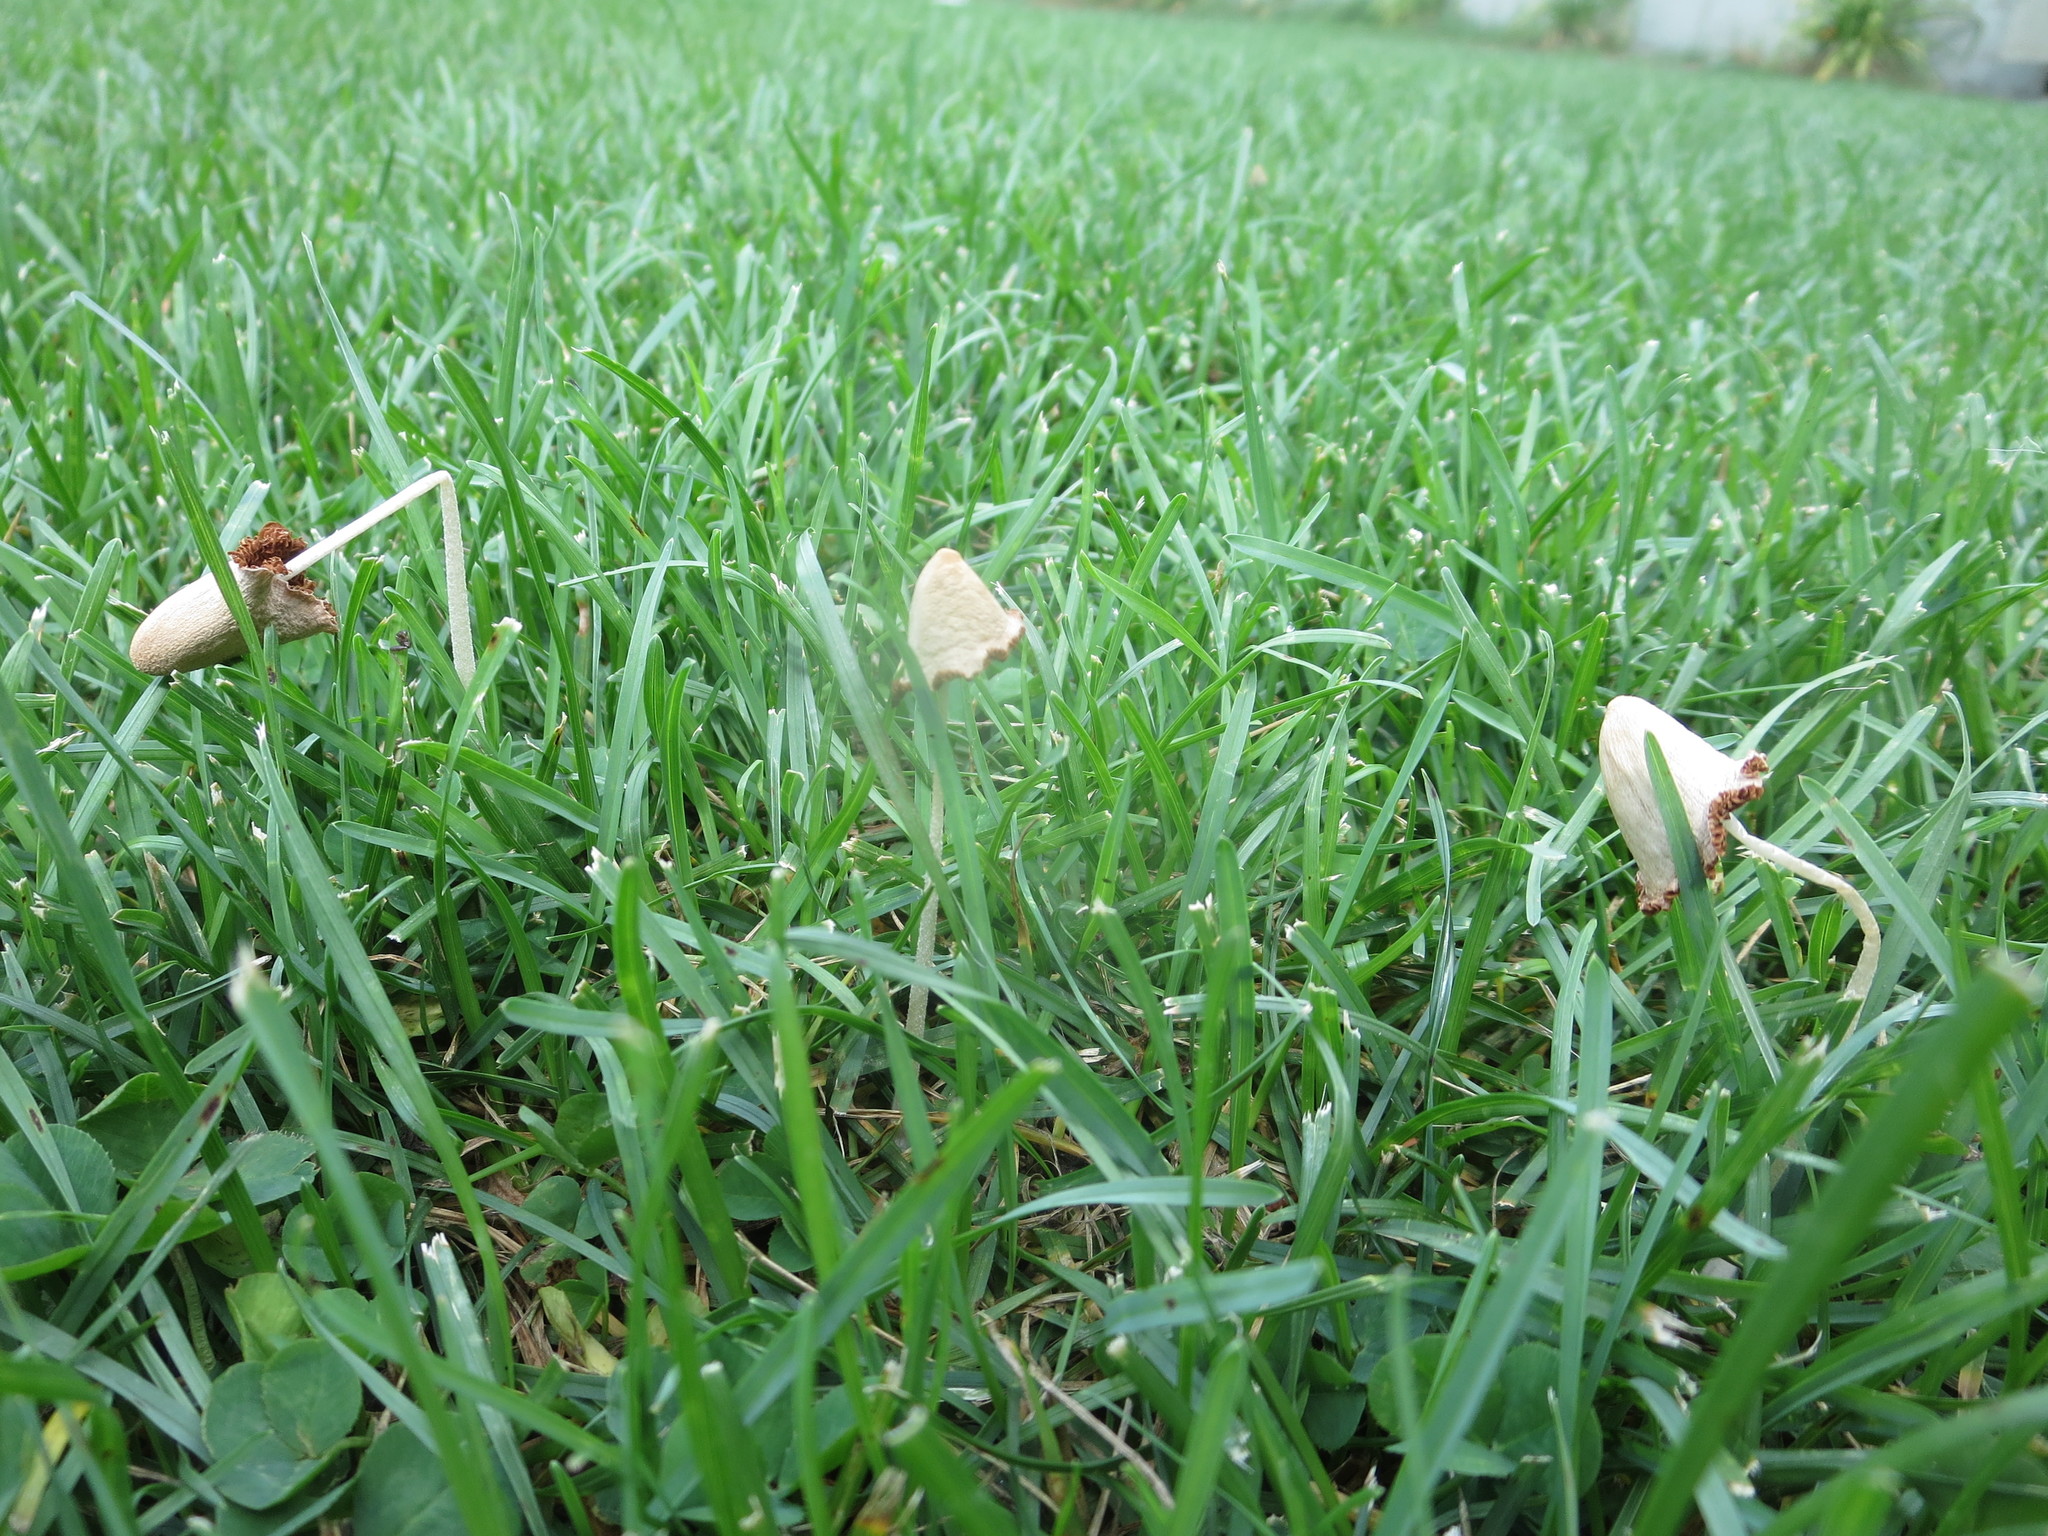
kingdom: Fungi
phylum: Basidiomycota
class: Agaricomycetes
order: Agaricales
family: Bolbitiaceae
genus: Conocybe
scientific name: Conocybe apala
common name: Milky conecap
